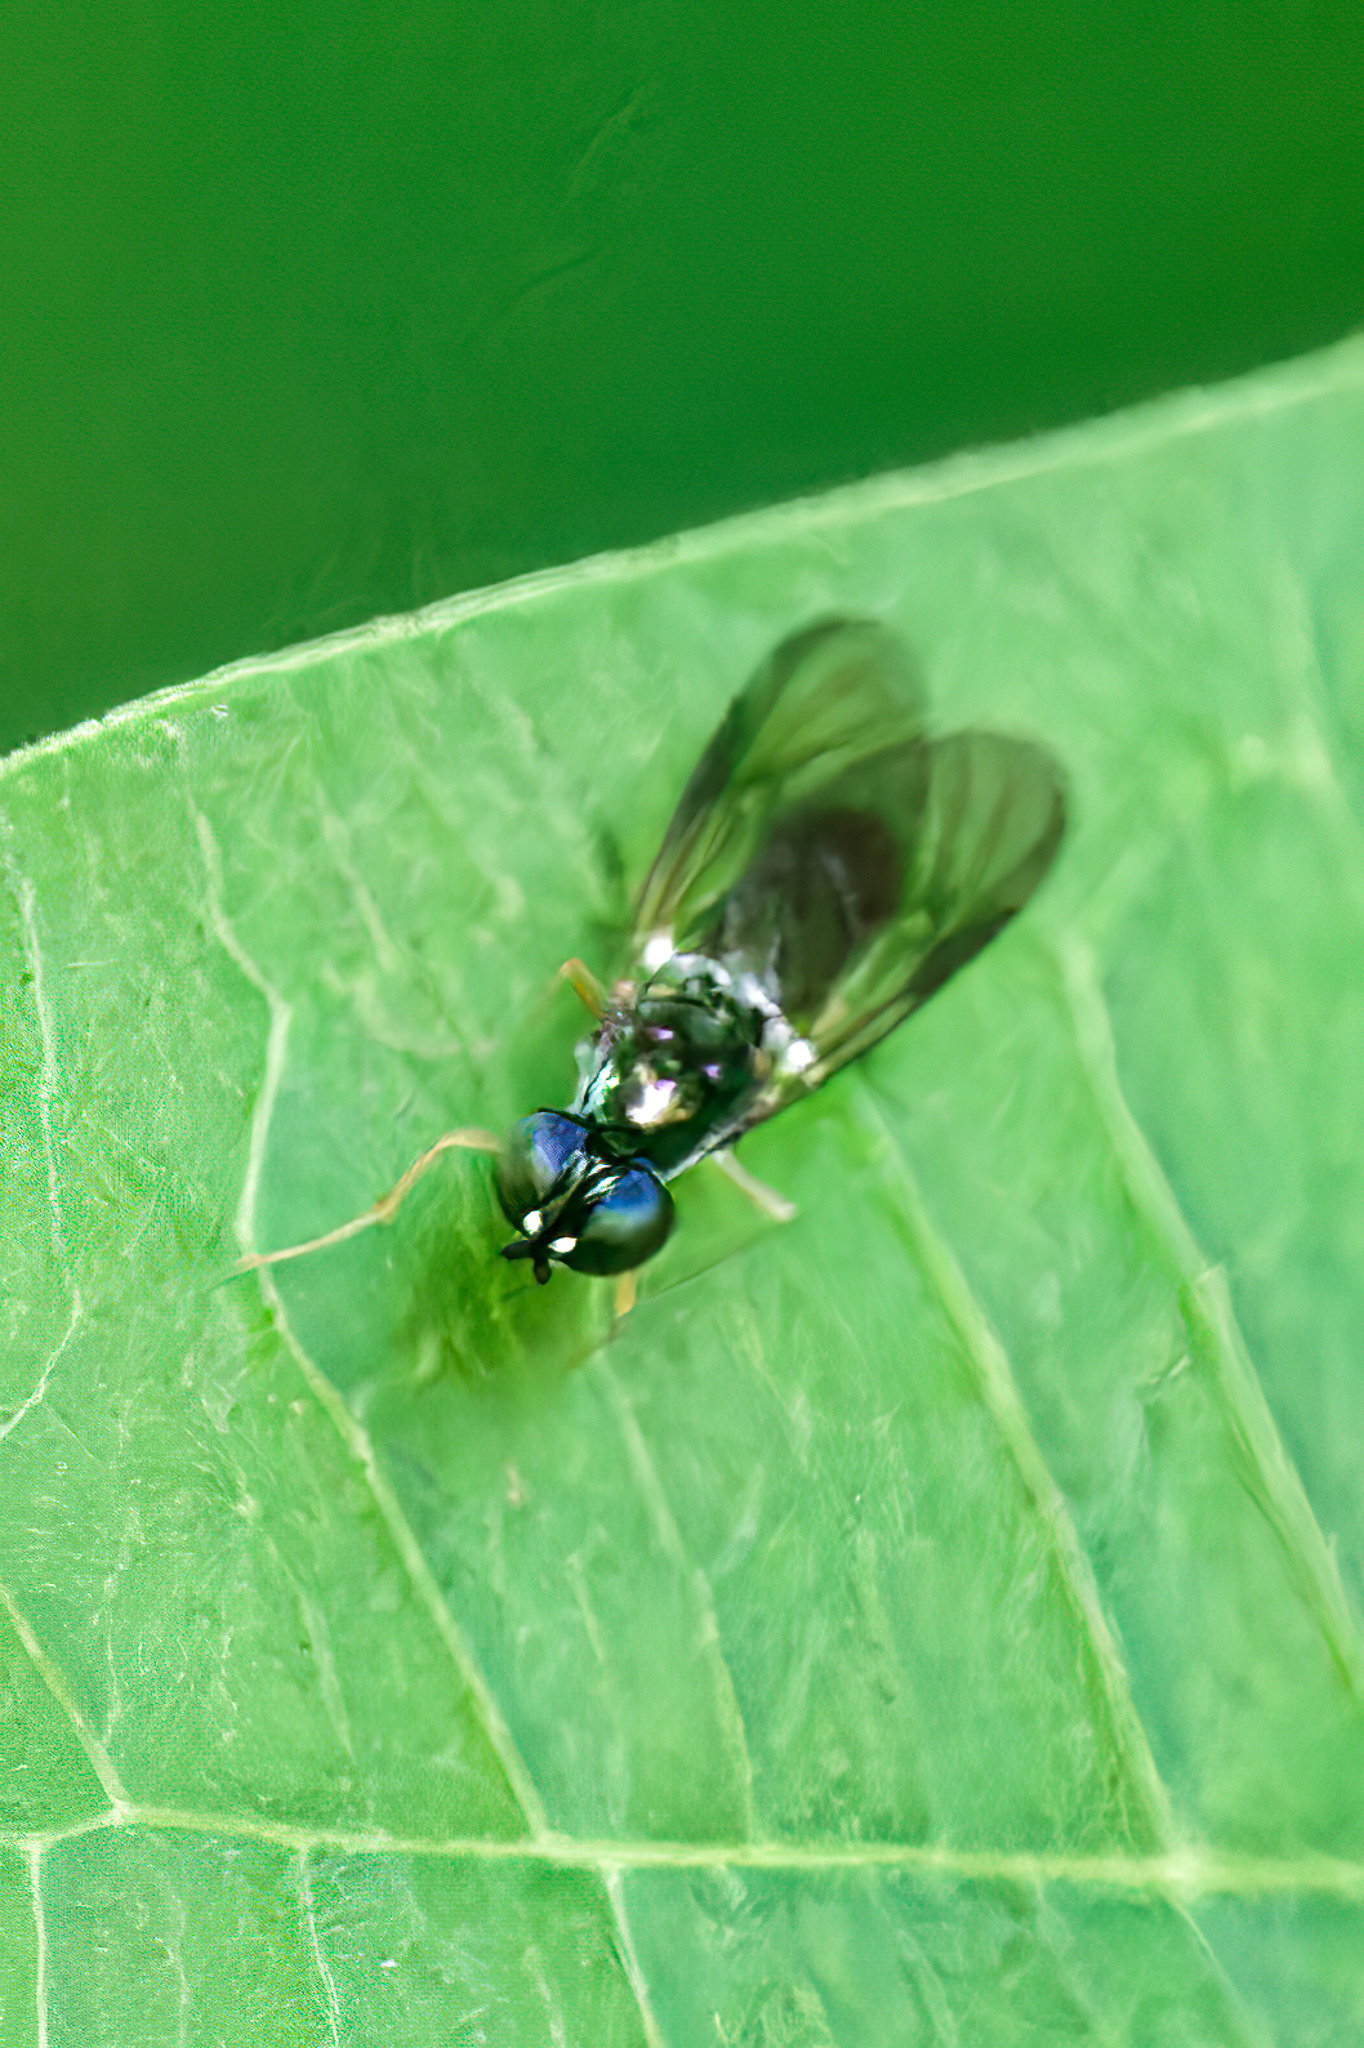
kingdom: Animalia
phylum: Arthropoda
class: Insecta
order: Diptera
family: Stratiomyidae
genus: Sargus
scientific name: Sargus decorus
